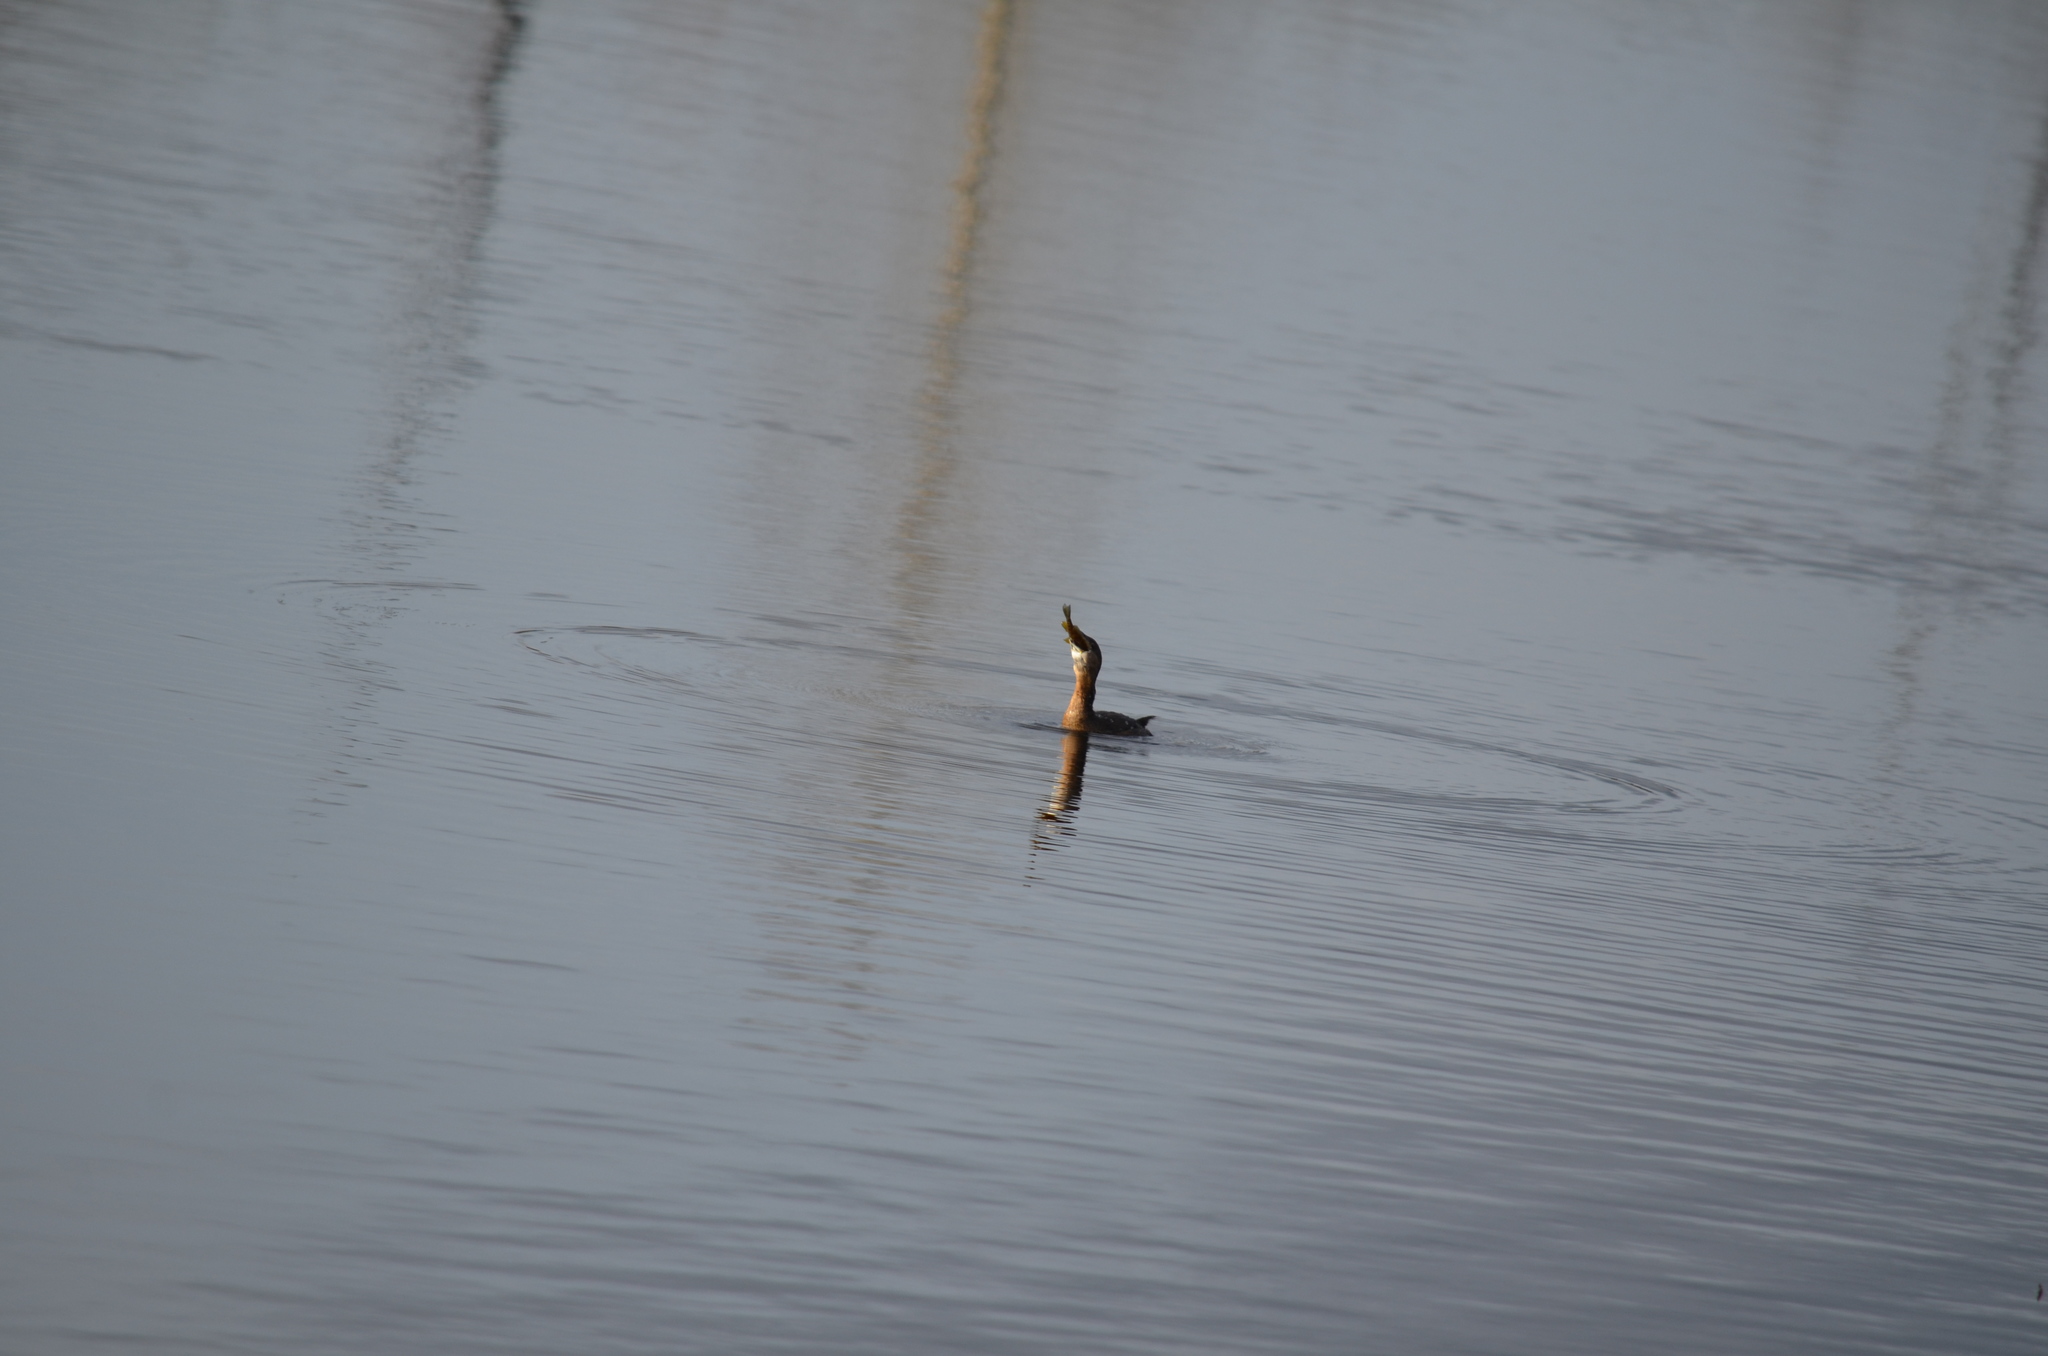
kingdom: Animalia
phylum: Chordata
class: Aves
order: Podicipediformes
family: Podicipedidae
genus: Podilymbus
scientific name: Podilymbus podiceps
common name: Pied-billed grebe
